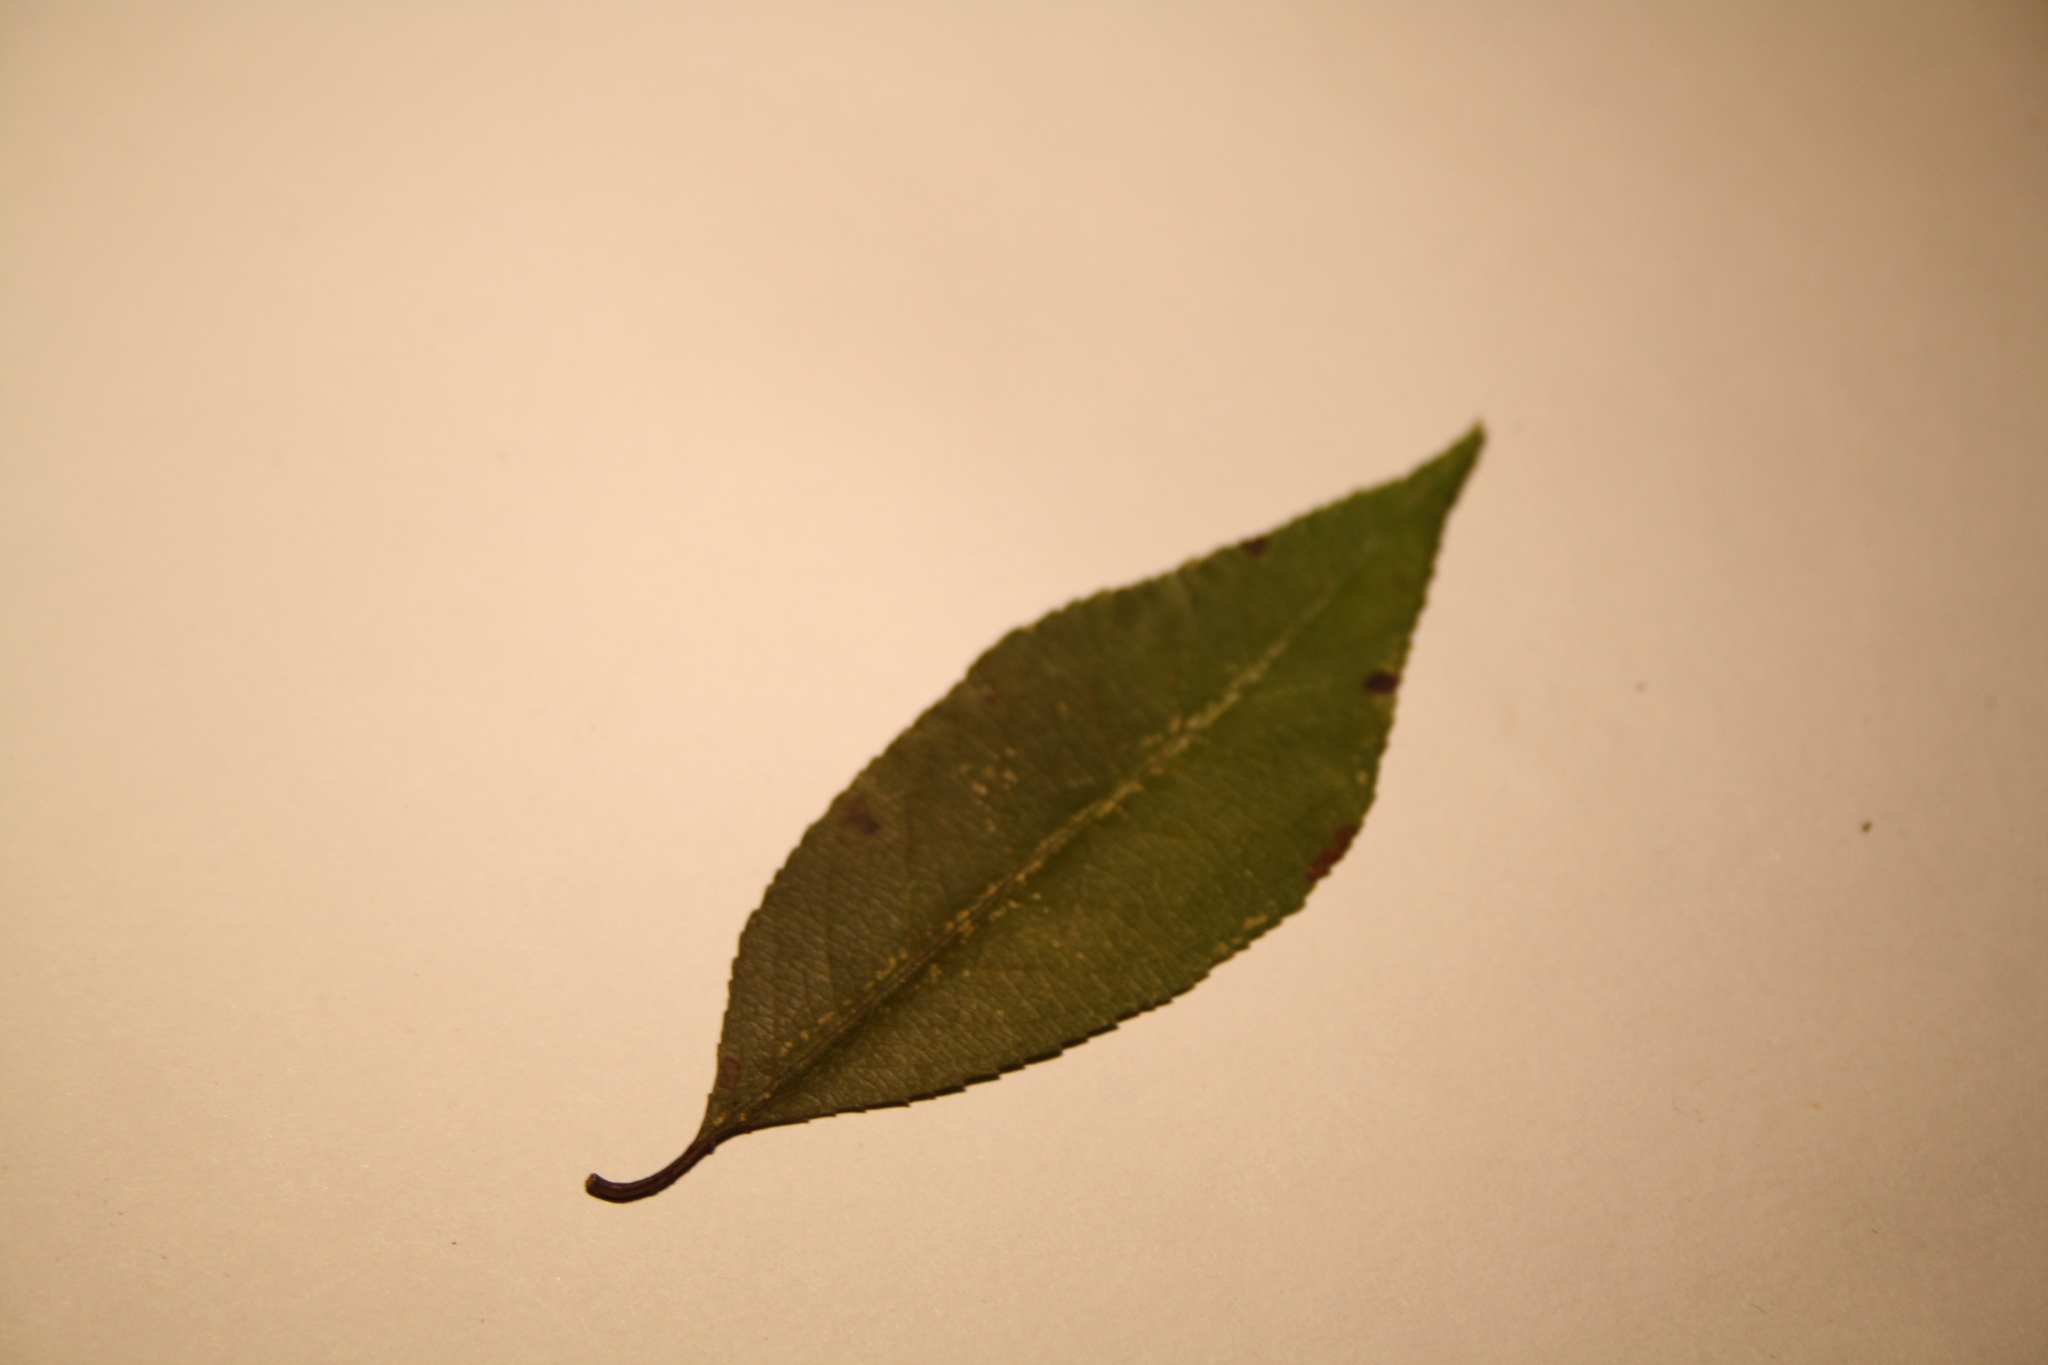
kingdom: Plantae
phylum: Tracheophyta
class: Magnoliopsida
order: Rosales
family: Rosaceae
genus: Prunus
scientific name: Prunus serotina
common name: Black cherry
